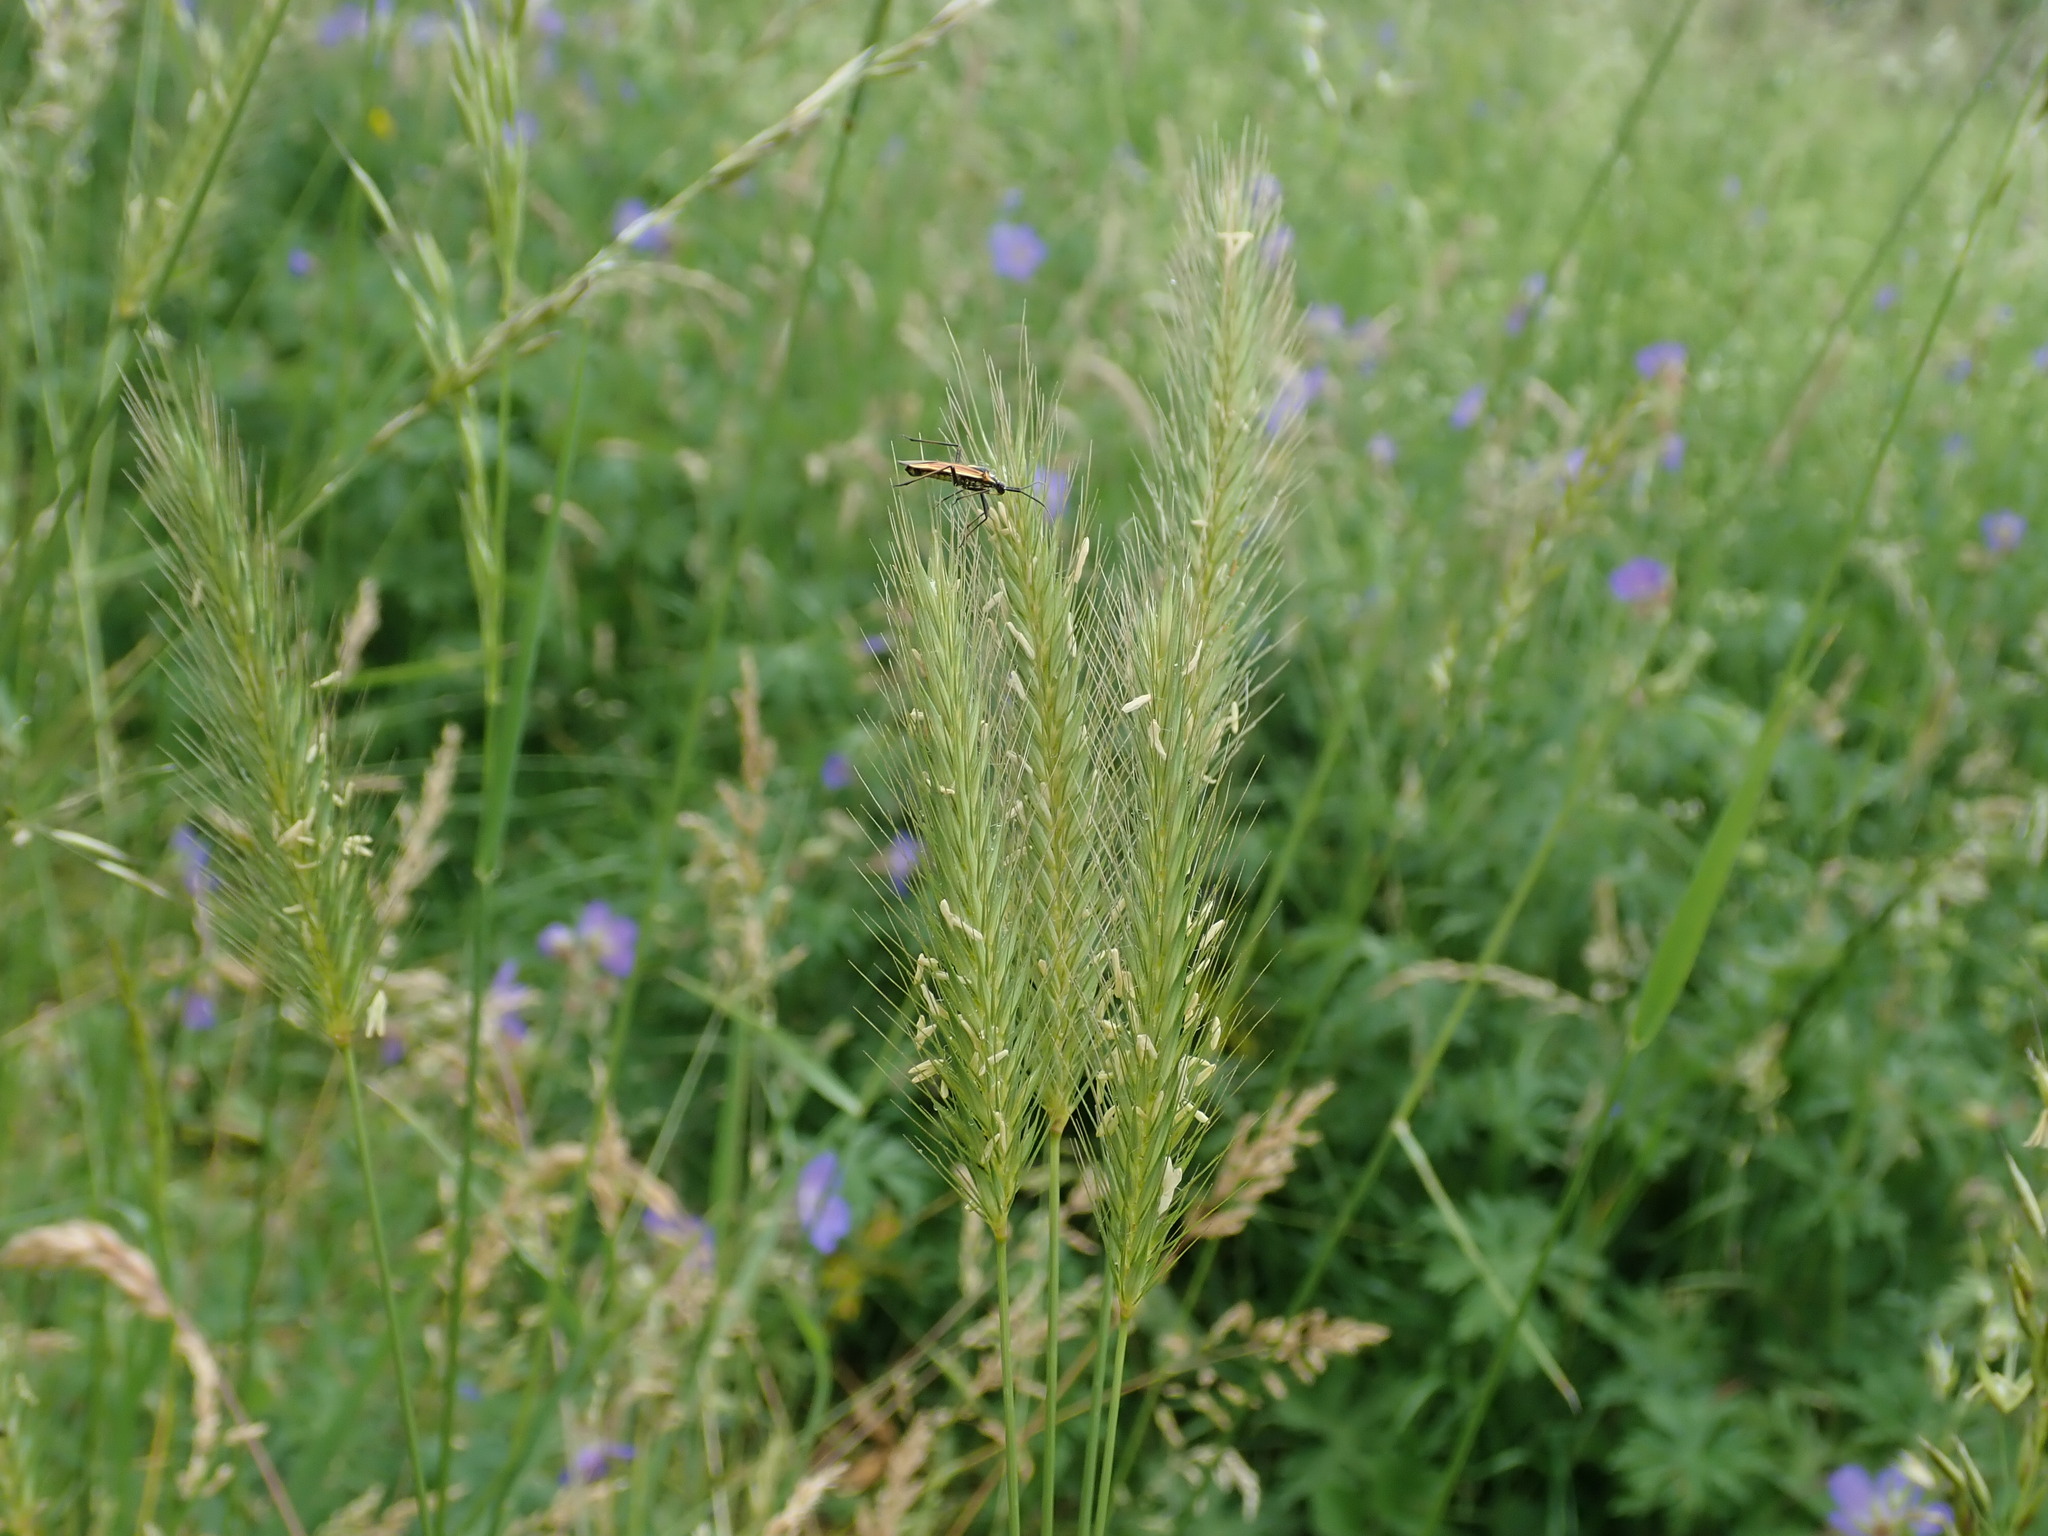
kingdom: Plantae
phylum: Tracheophyta
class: Liliopsida
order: Poales
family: Poaceae
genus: Hordeum
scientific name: Hordeum secalinum
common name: Meadow barley
